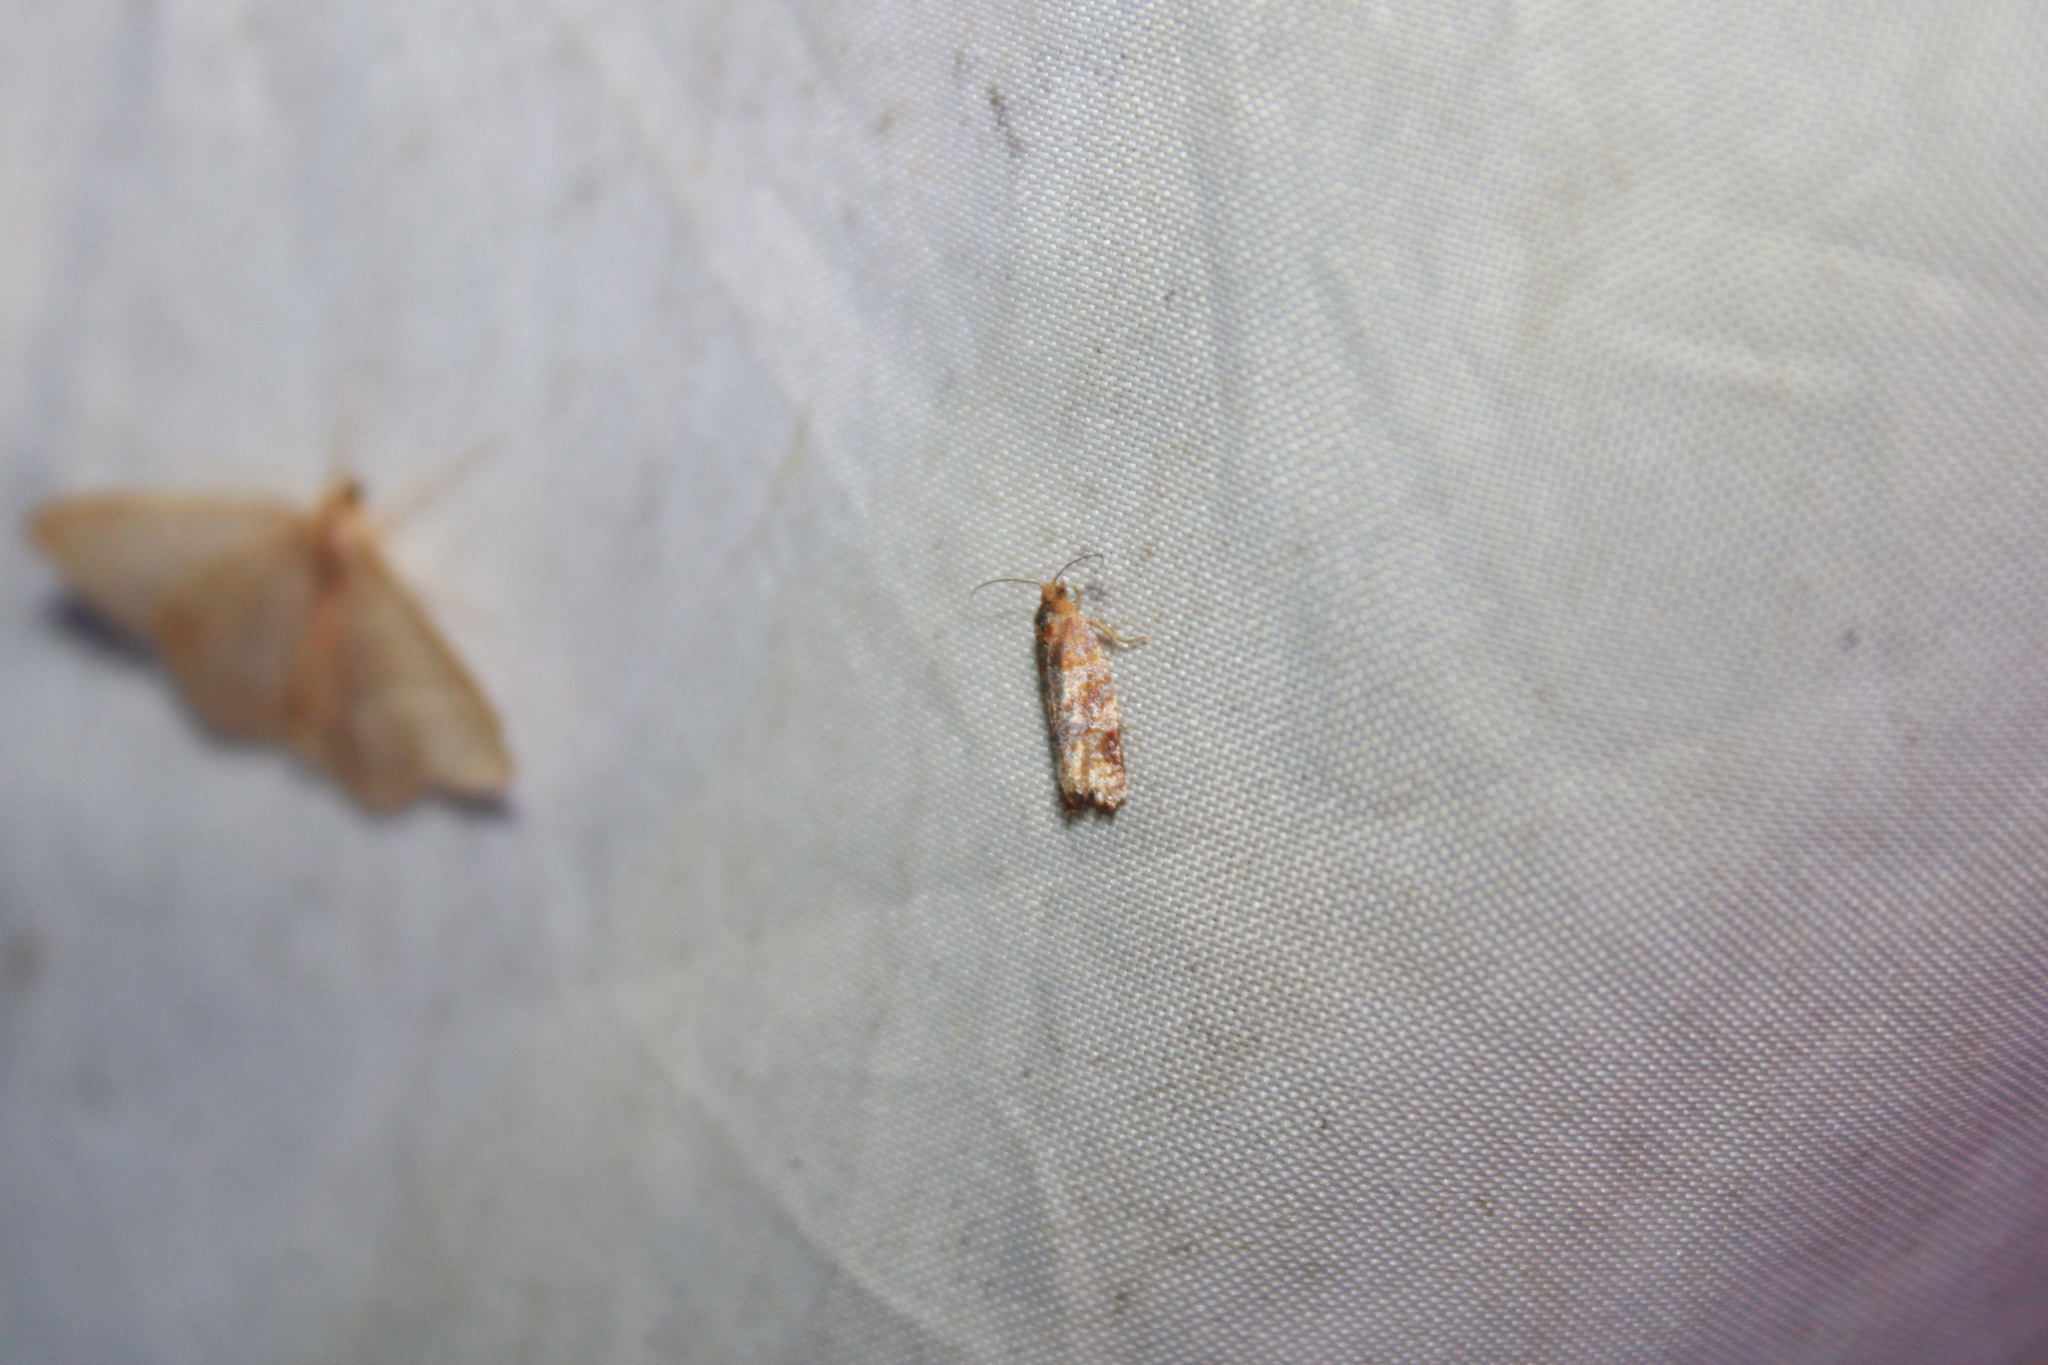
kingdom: Animalia
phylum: Arthropoda
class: Insecta
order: Lepidoptera
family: Tortricidae
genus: Argyrotaenia
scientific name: Argyrotaenia pinatubana
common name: Pine tube moth
